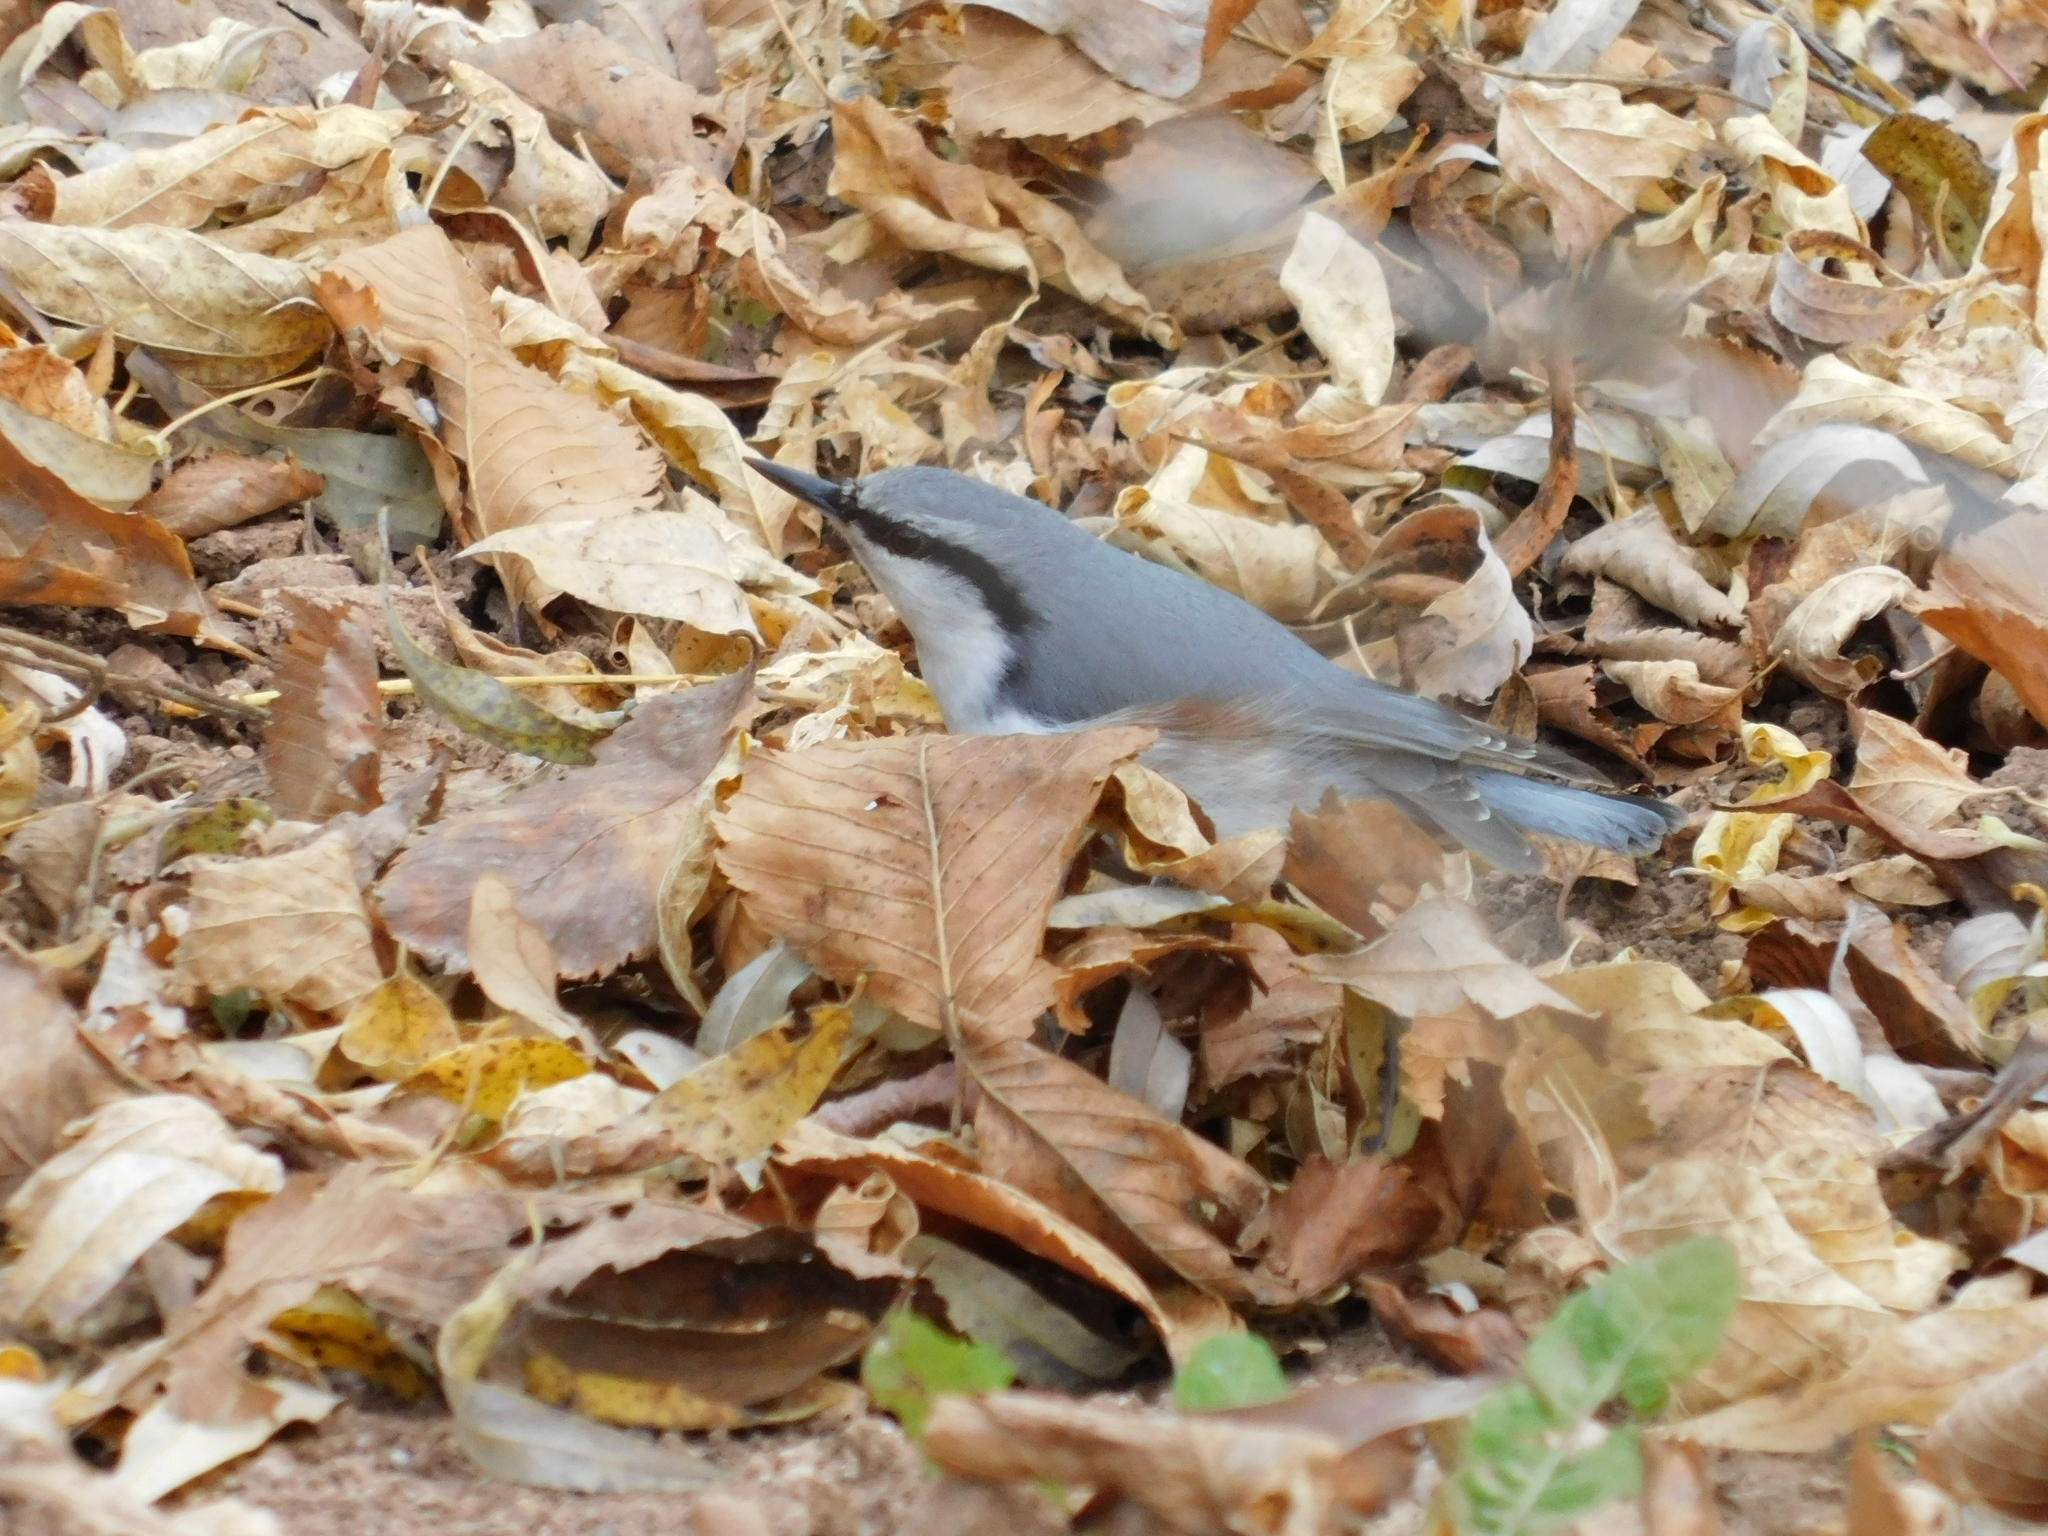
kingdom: Animalia
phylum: Chordata
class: Aves
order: Passeriformes
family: Sittidae
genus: Sitta
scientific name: Sitta europaea
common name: Eurasian nuthatch
